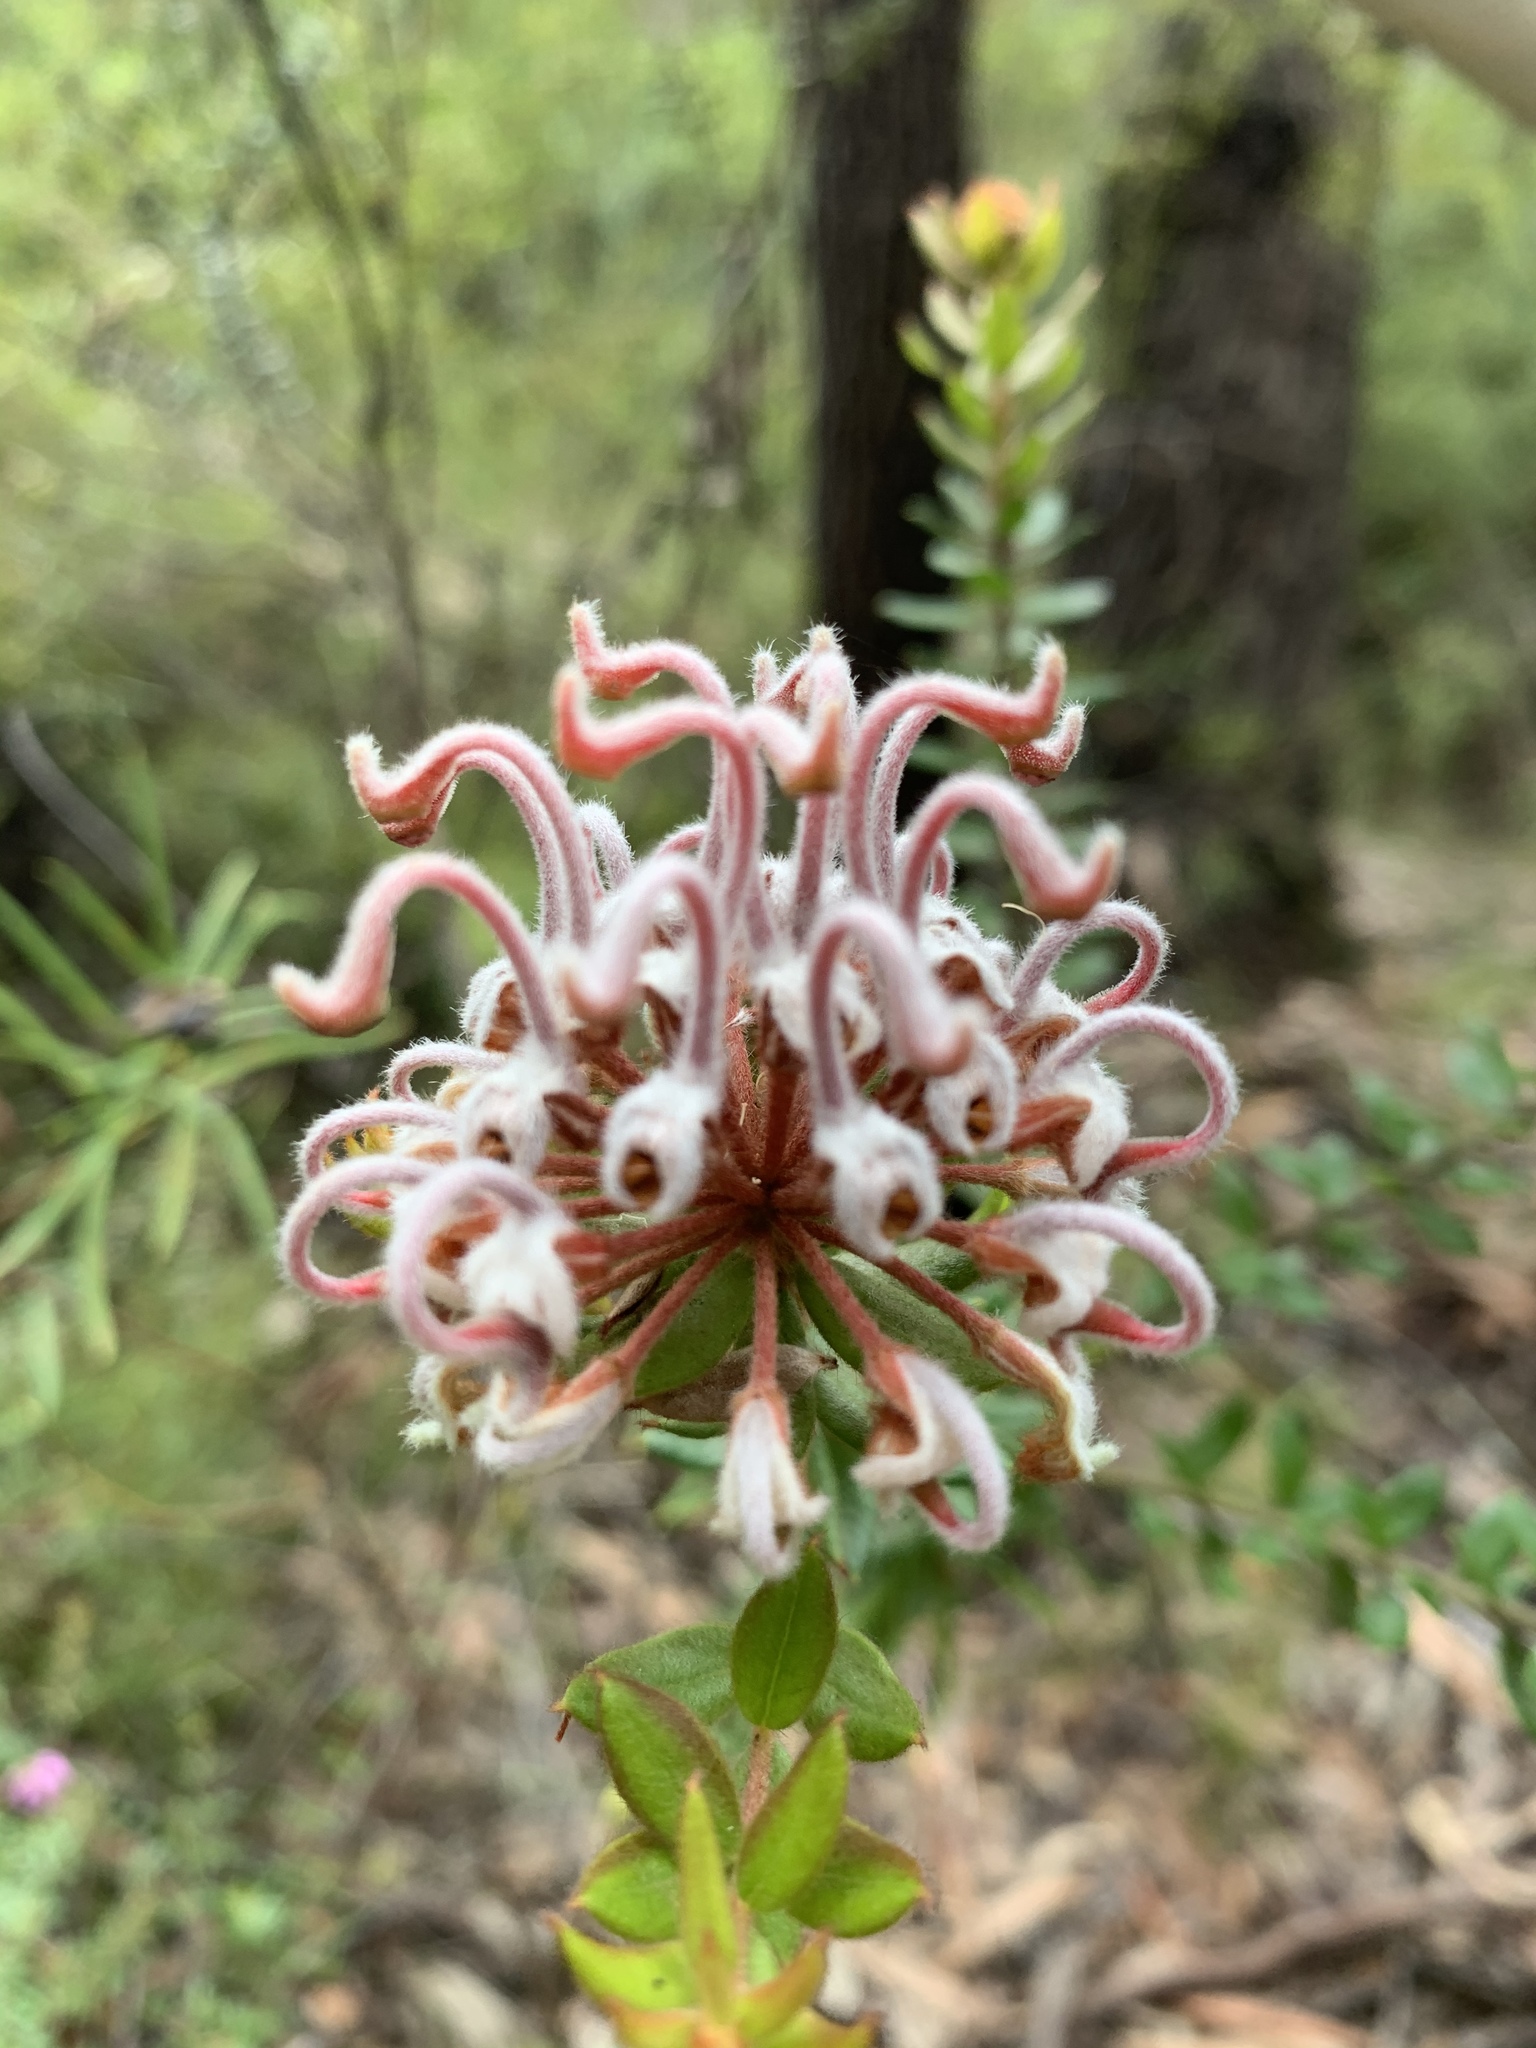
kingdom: Plantae
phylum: Tracheophyta
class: Magnoliopsida
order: Proteales
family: Proteaceae
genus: Grevillea
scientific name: Grevillea buxifolia
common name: Grey spiderflower
